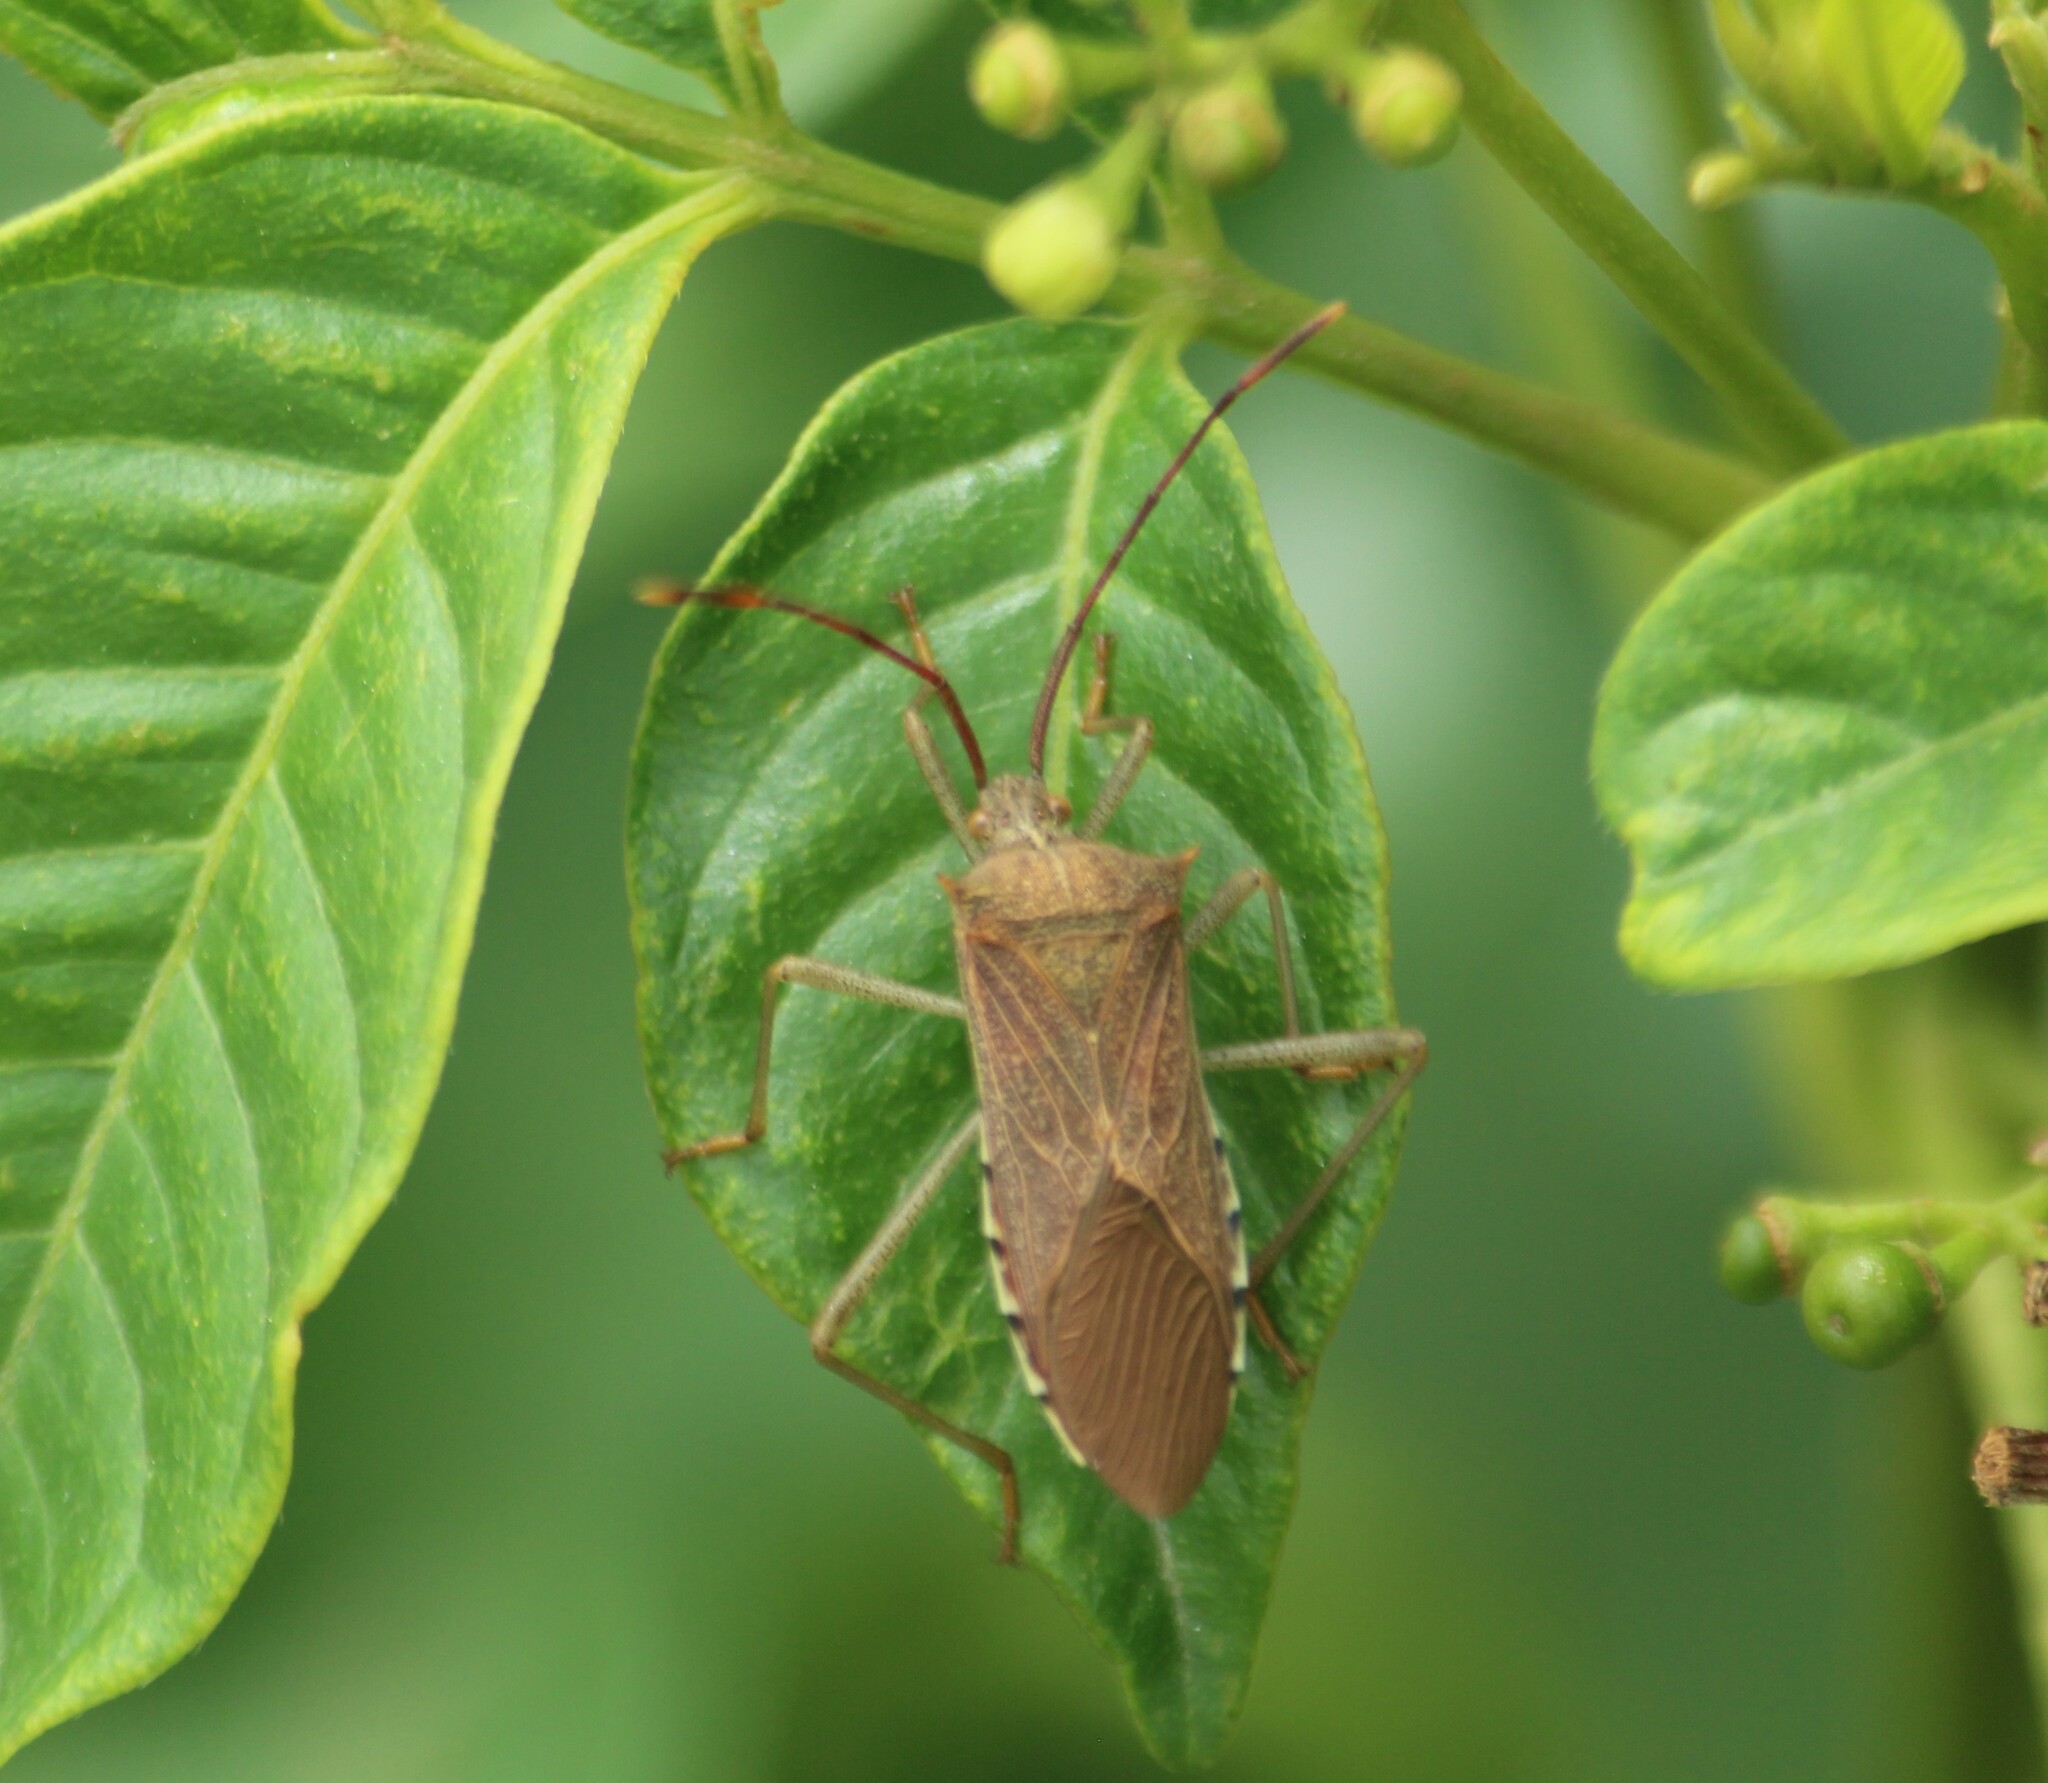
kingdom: Animalia
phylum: Arthropoda
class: Insecta
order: Hemiptera
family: Coreidae
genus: Plinachtus
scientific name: Plinachtus basalis
